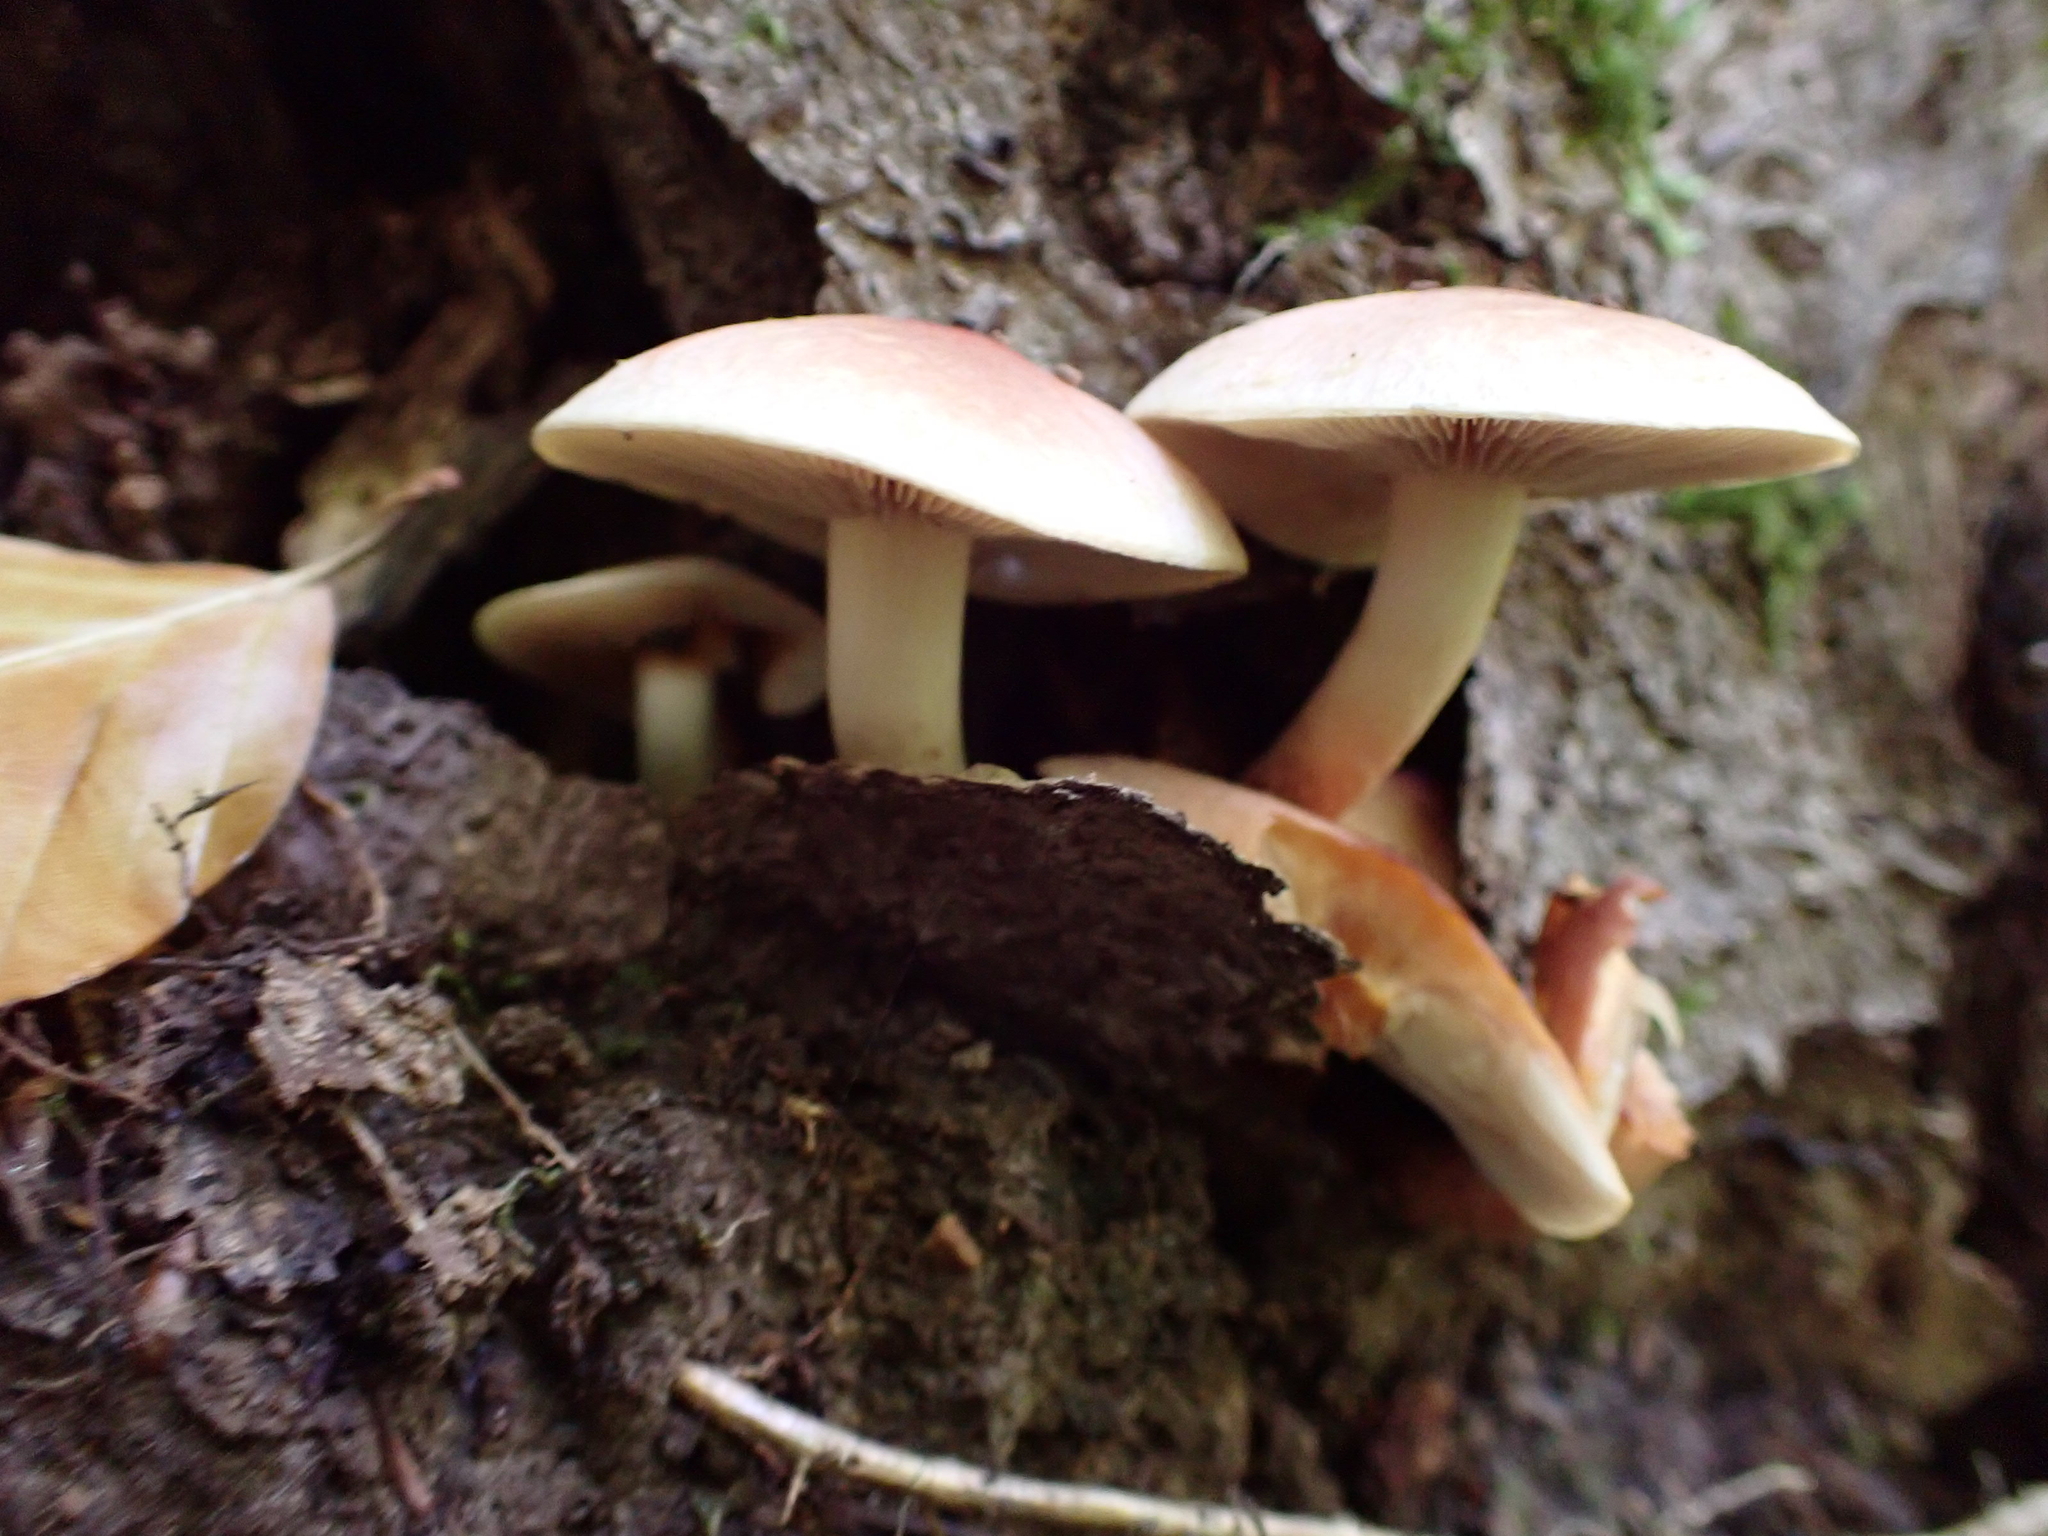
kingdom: Fungi
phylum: Basidiomycota
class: Agaricomycetes
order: Agaricales
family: Strophariaceae
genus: Hypholoma
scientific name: Hypholoma lateritium
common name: Brick caps
